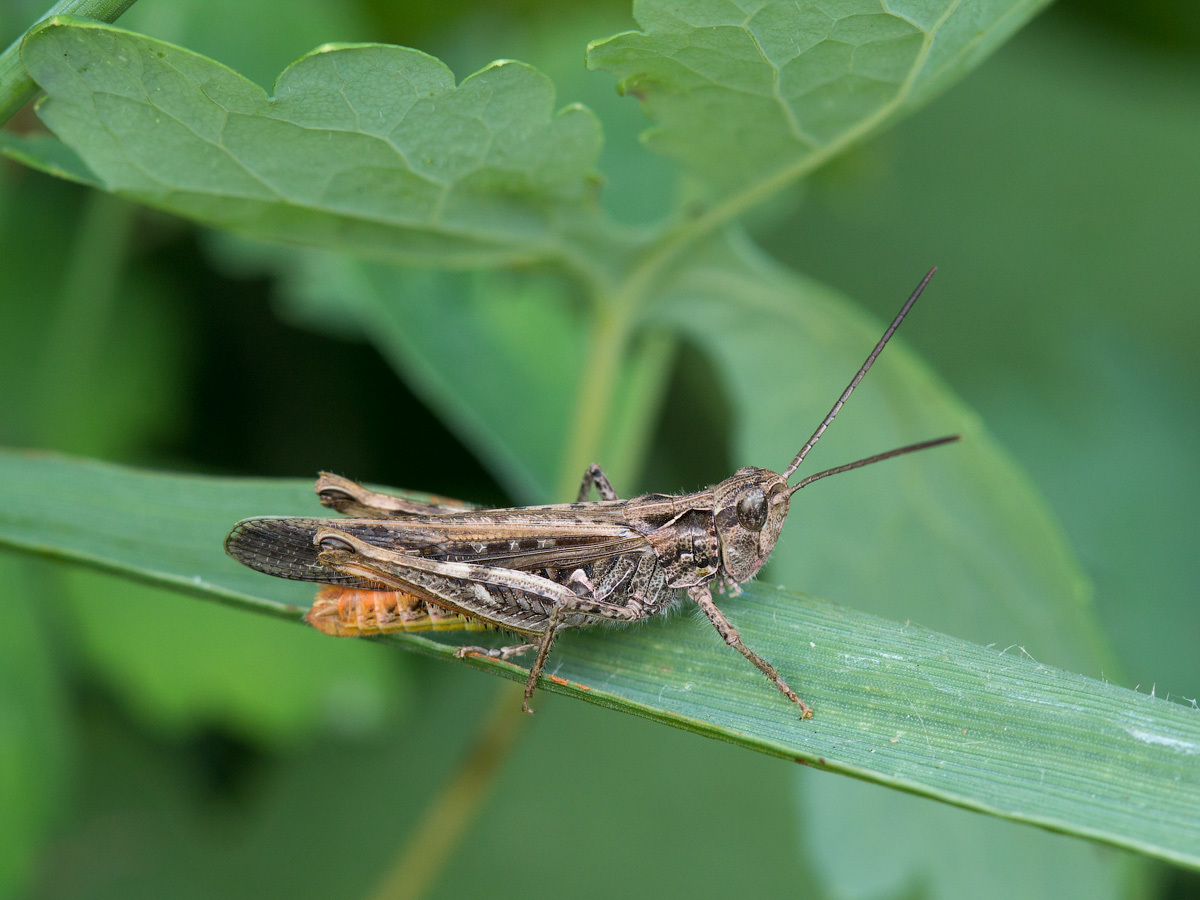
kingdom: Animalia
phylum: Arthropoda
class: Insecta
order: Orthoptera
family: Acrididae
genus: Chorthippus
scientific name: Chorthippus brunneus
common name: Field grasshopper
